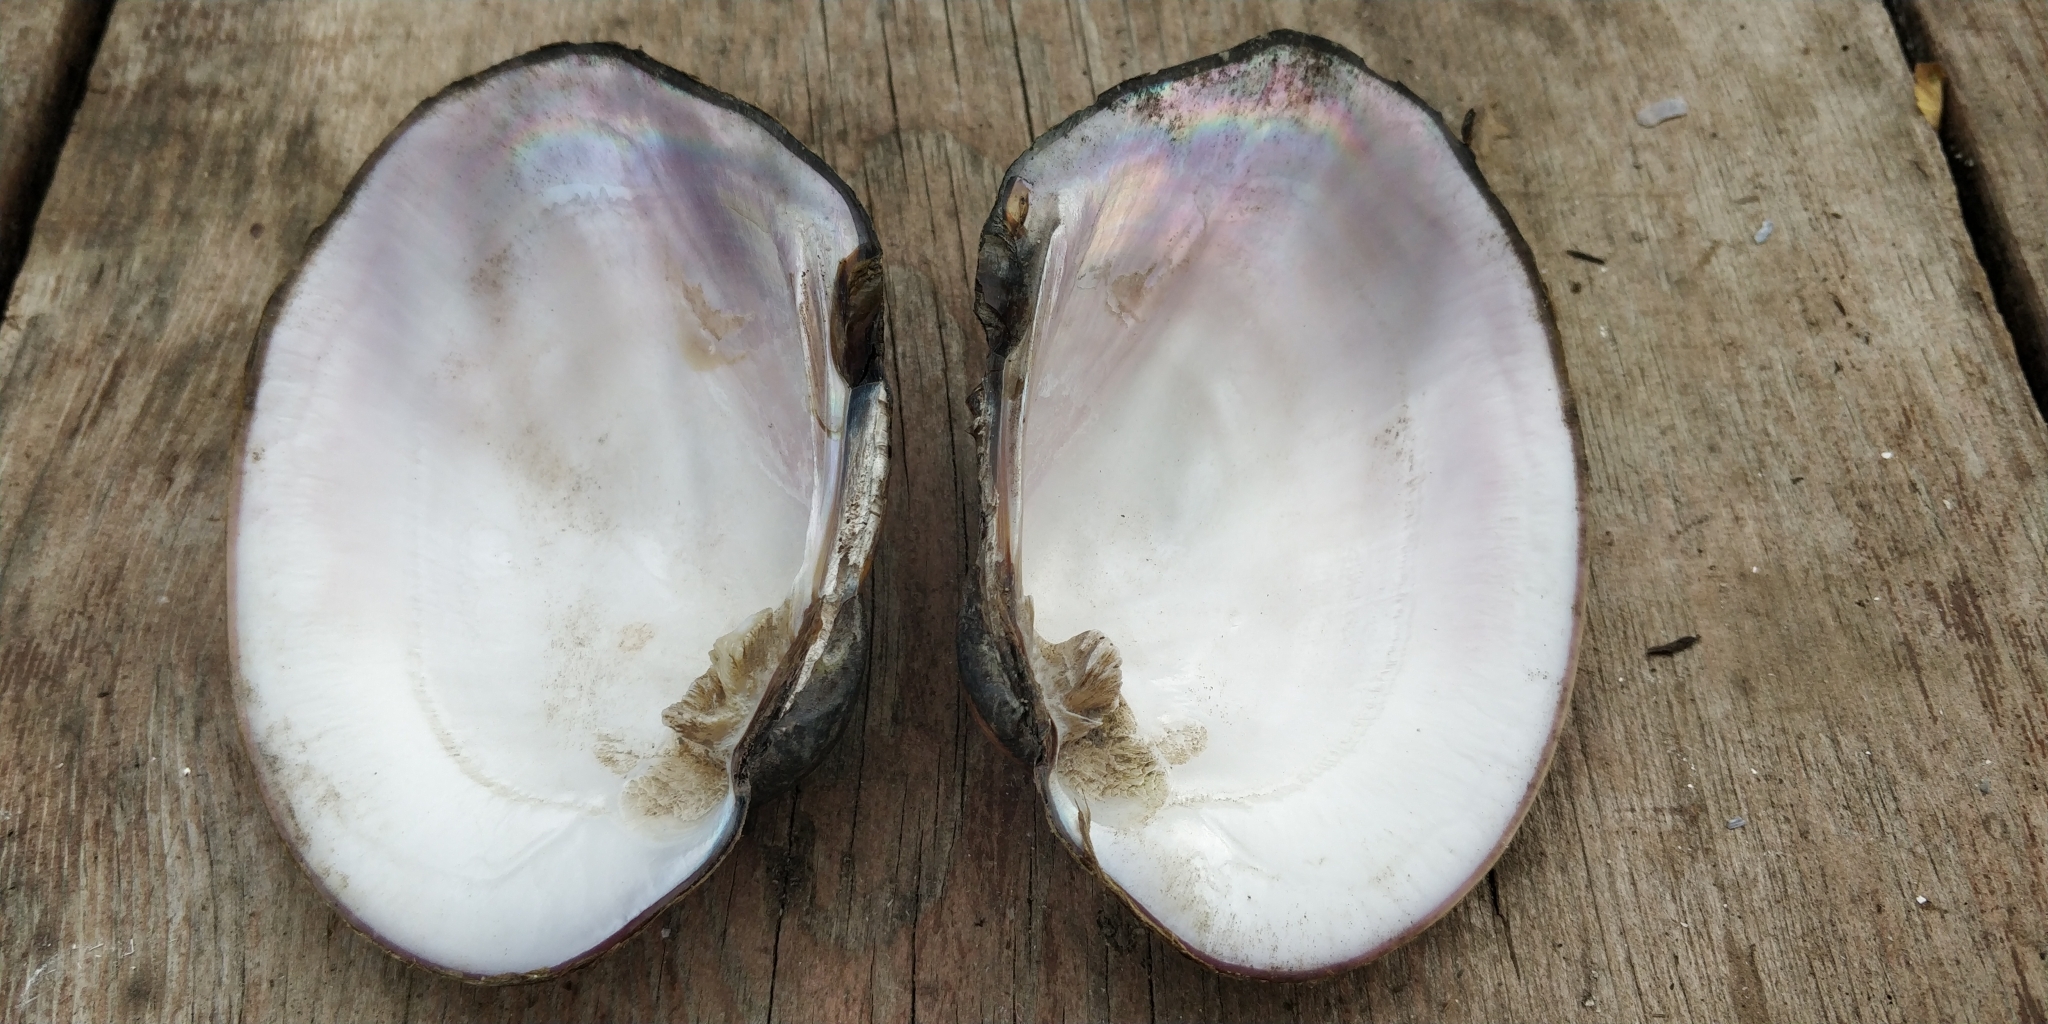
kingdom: Animalia
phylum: Mollusca
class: Bivalvia
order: Unionida
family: Unionidae
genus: Amblema
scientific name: Amblema plicata
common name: Threeridge
